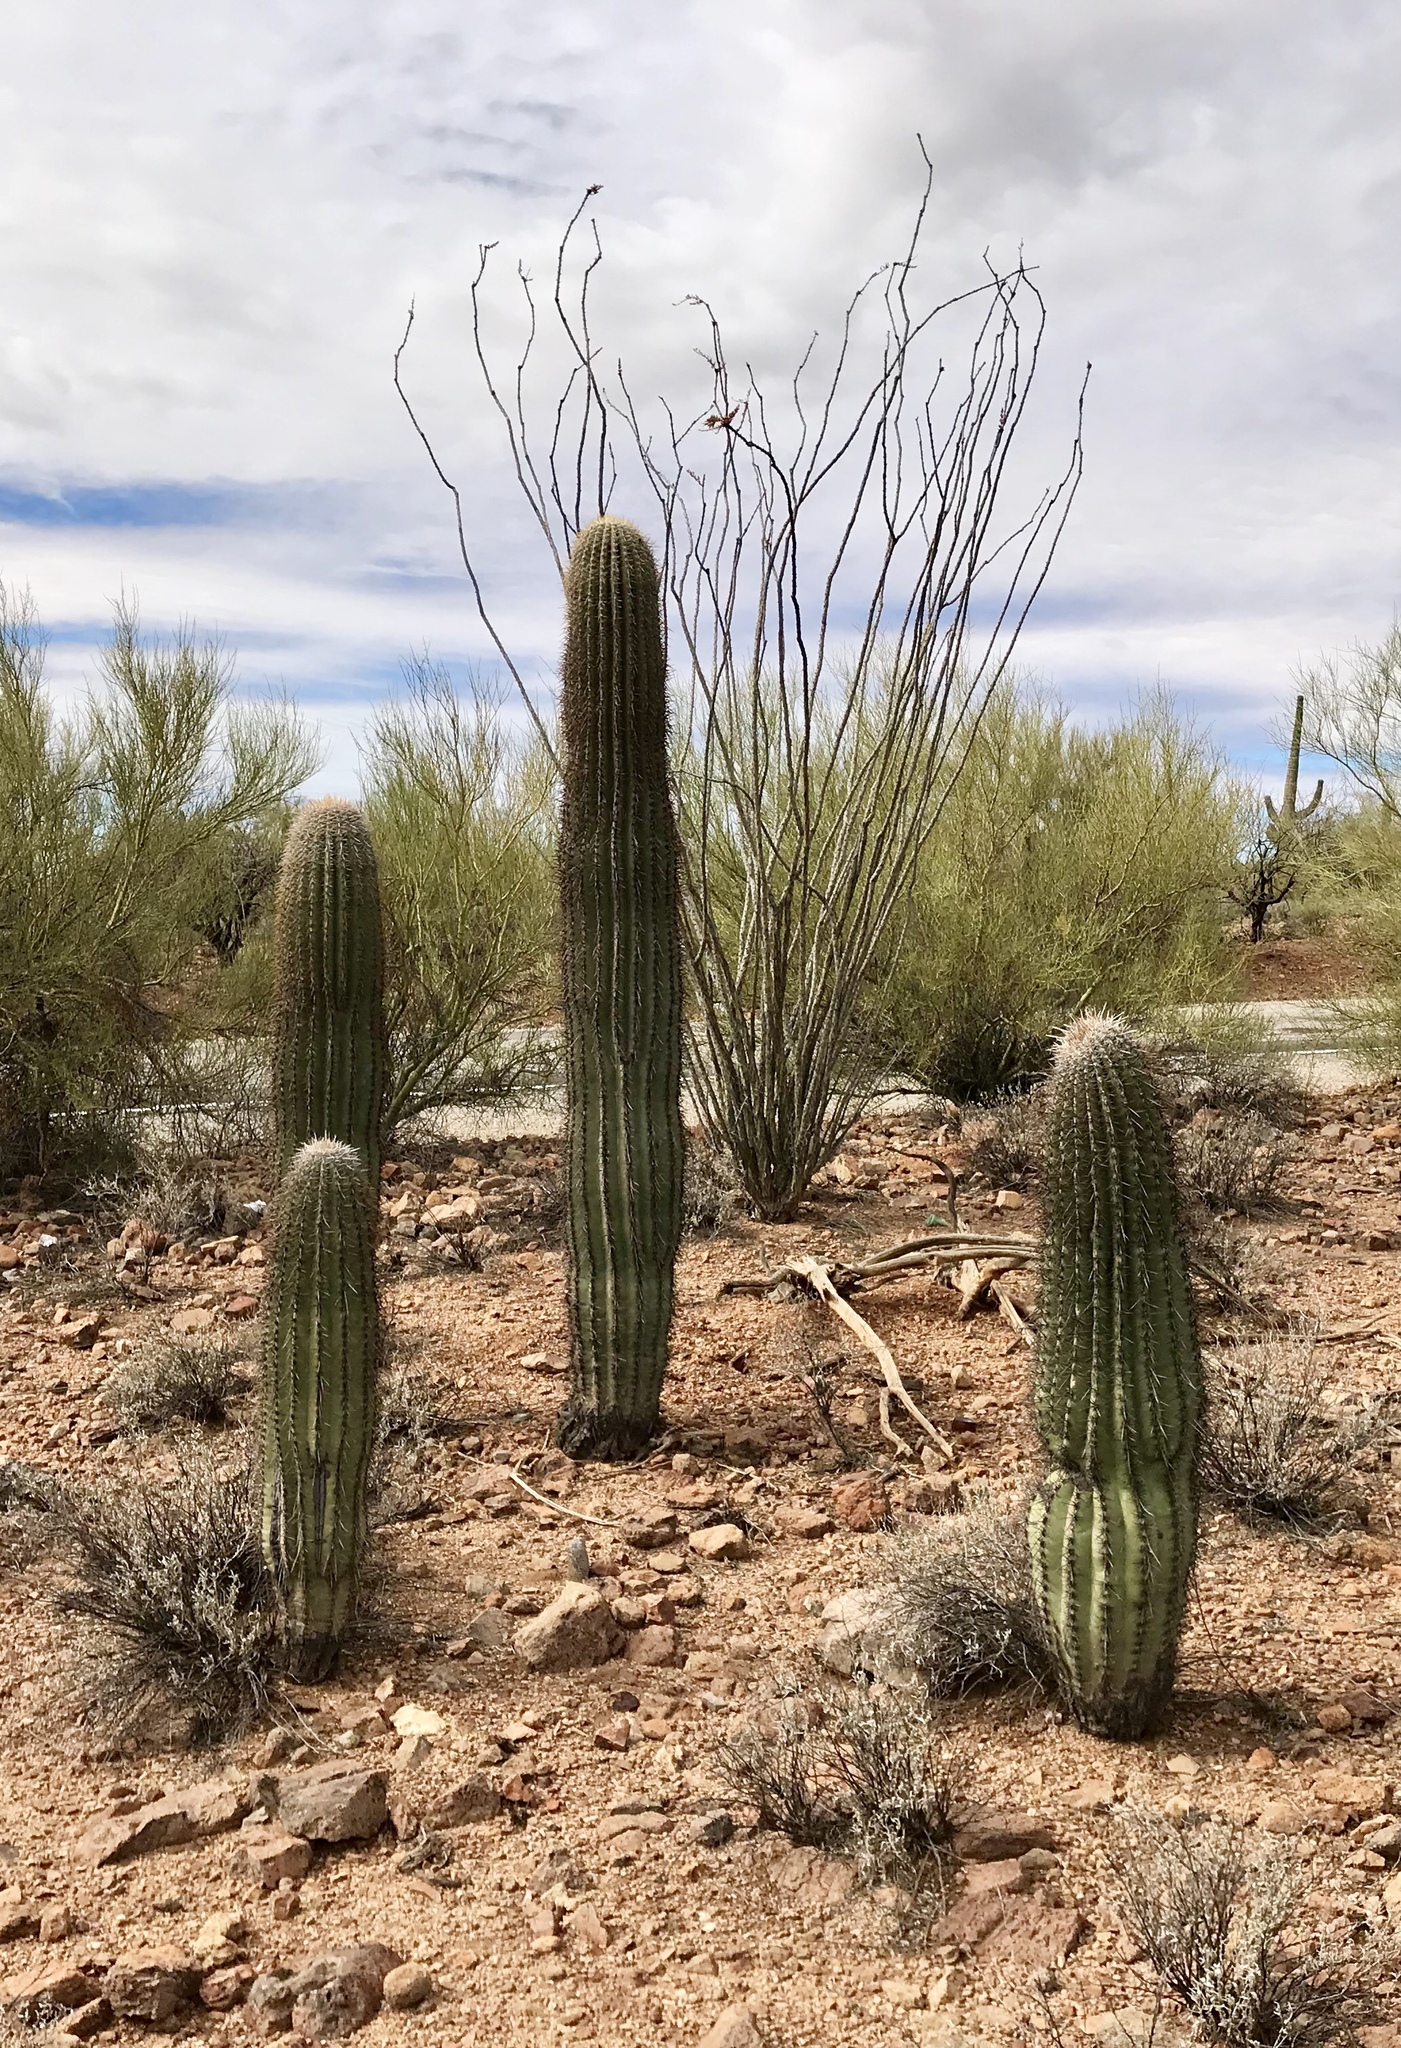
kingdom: Plantae
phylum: Tracheophyta
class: Magnoliopsida
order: Caryophyllales
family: Cactaceae
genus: Carnegiea
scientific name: Carnegiea gigantea
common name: Saguaro
